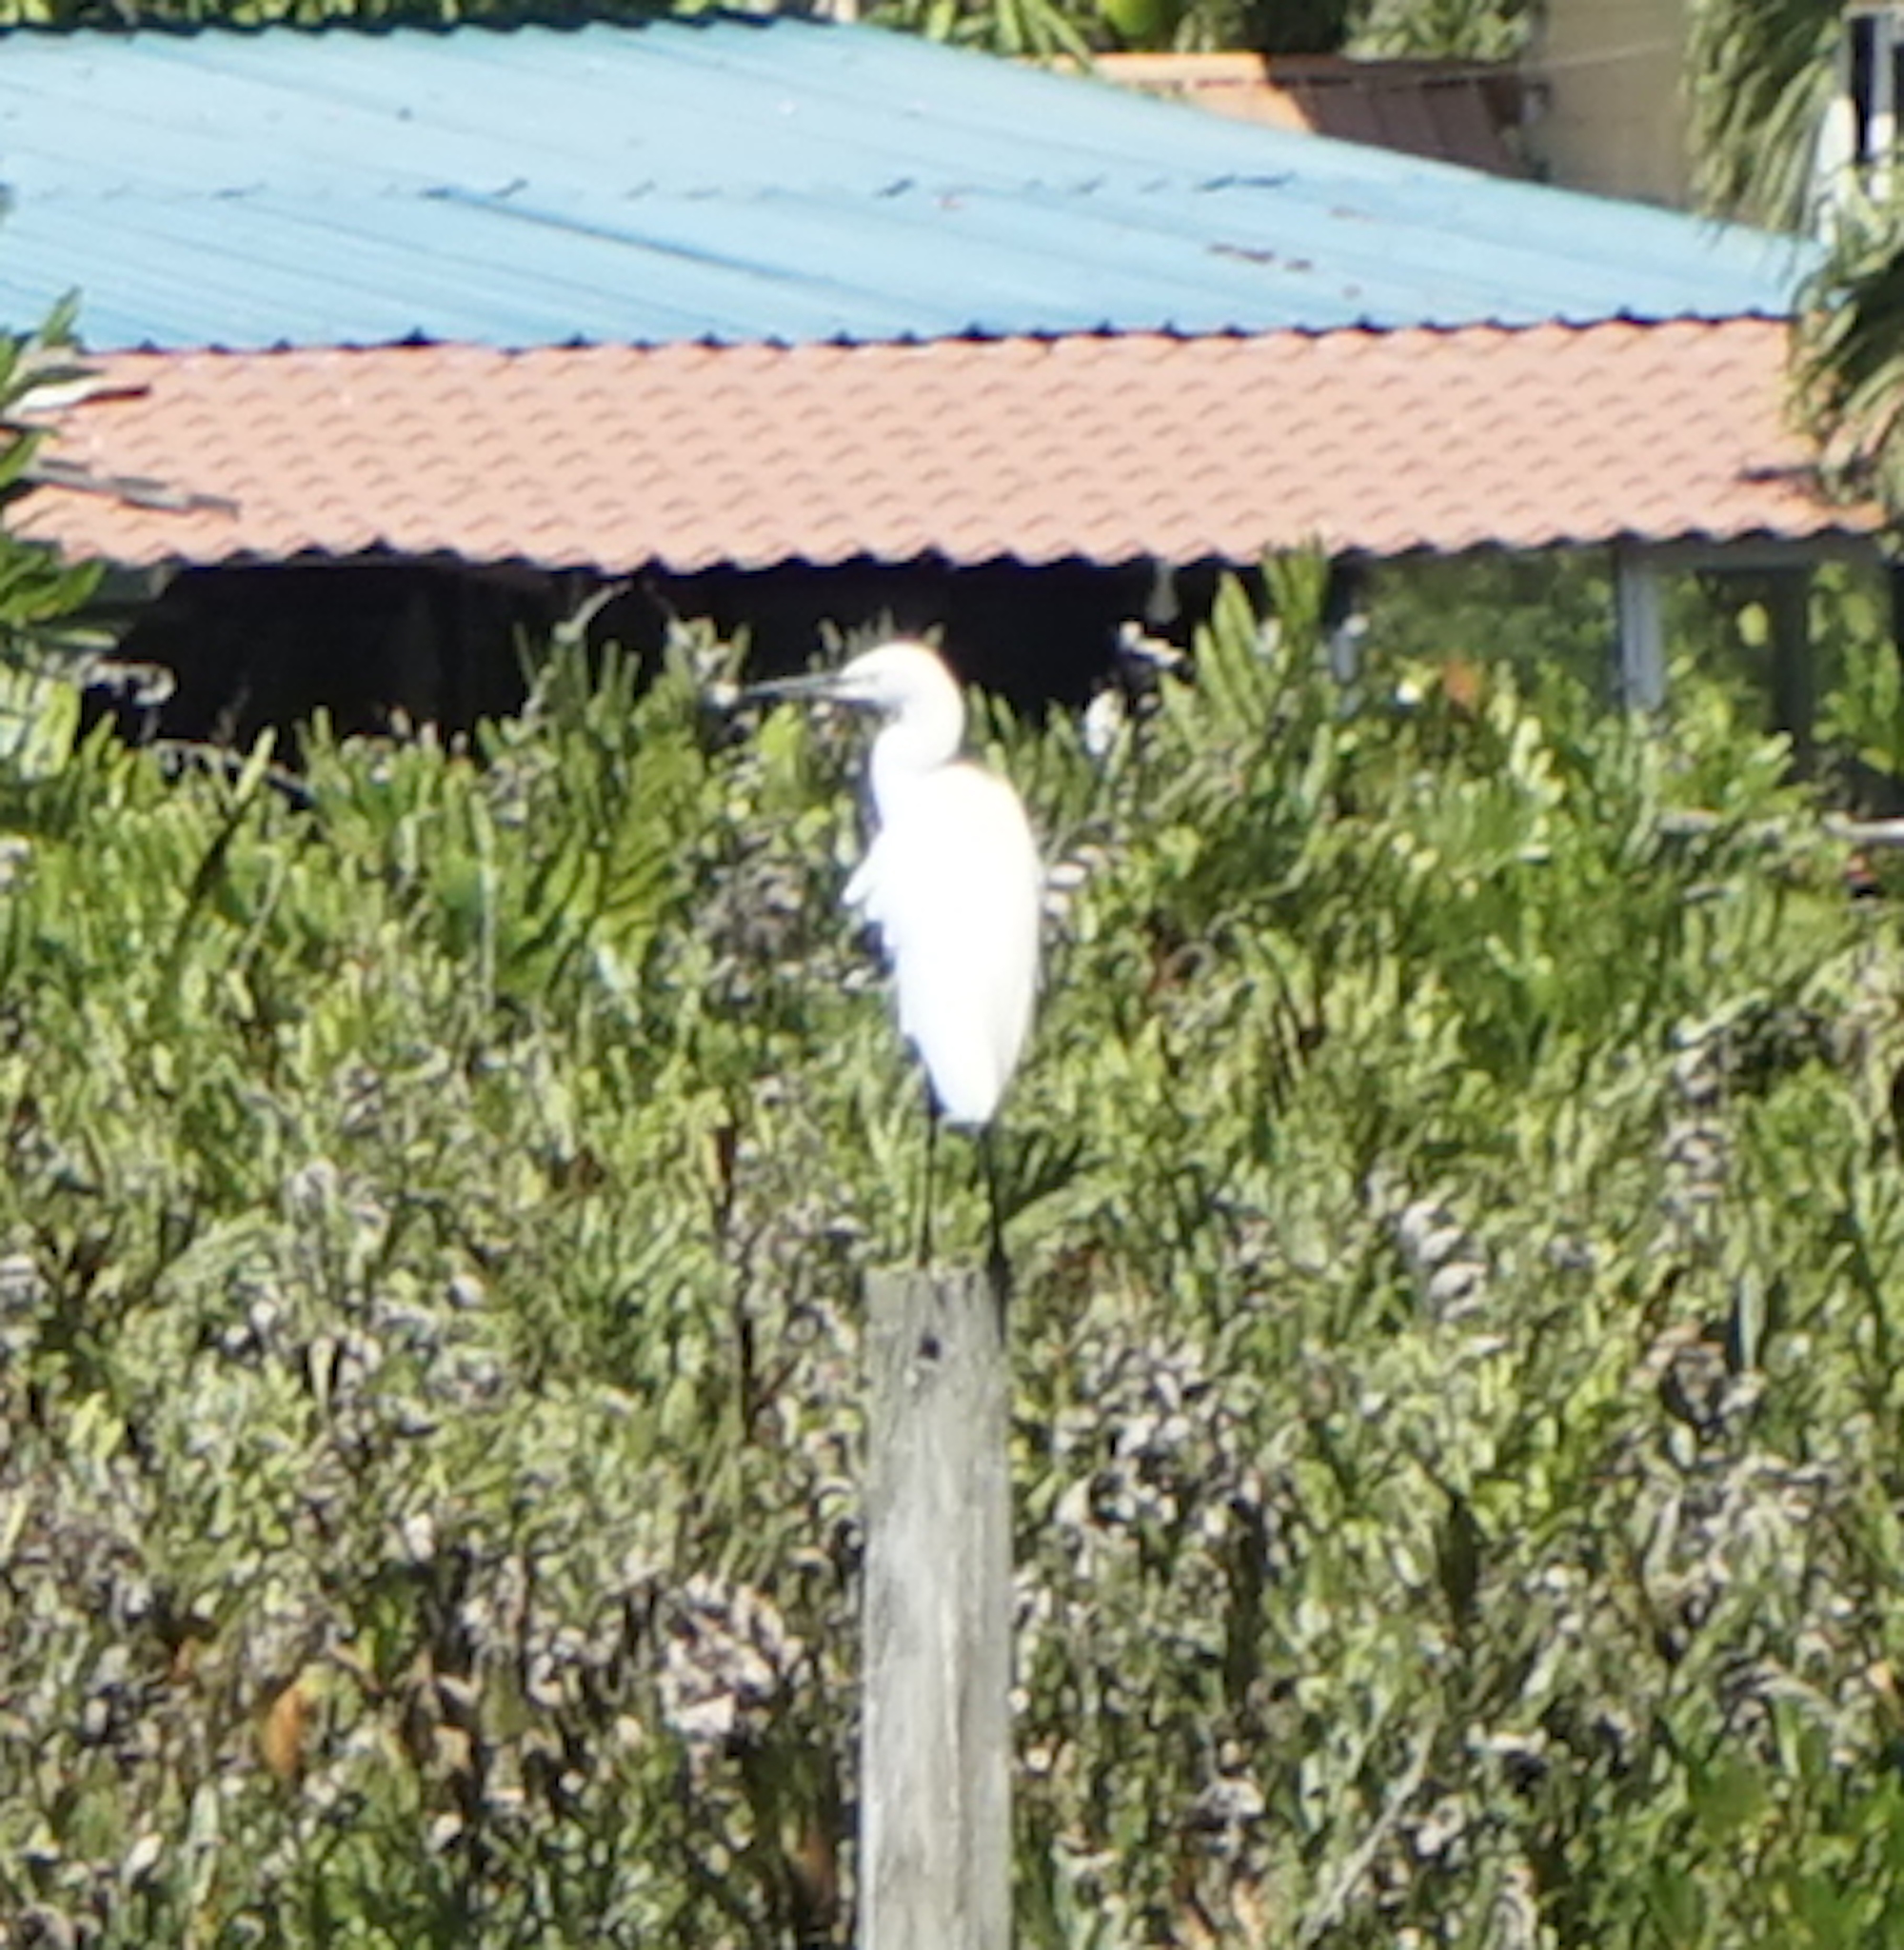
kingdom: Animalia
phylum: Chordata
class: Aves
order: Pelecaniformes
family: Ardeidae
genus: Egretta
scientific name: Egretta garzetta
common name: Little egret
